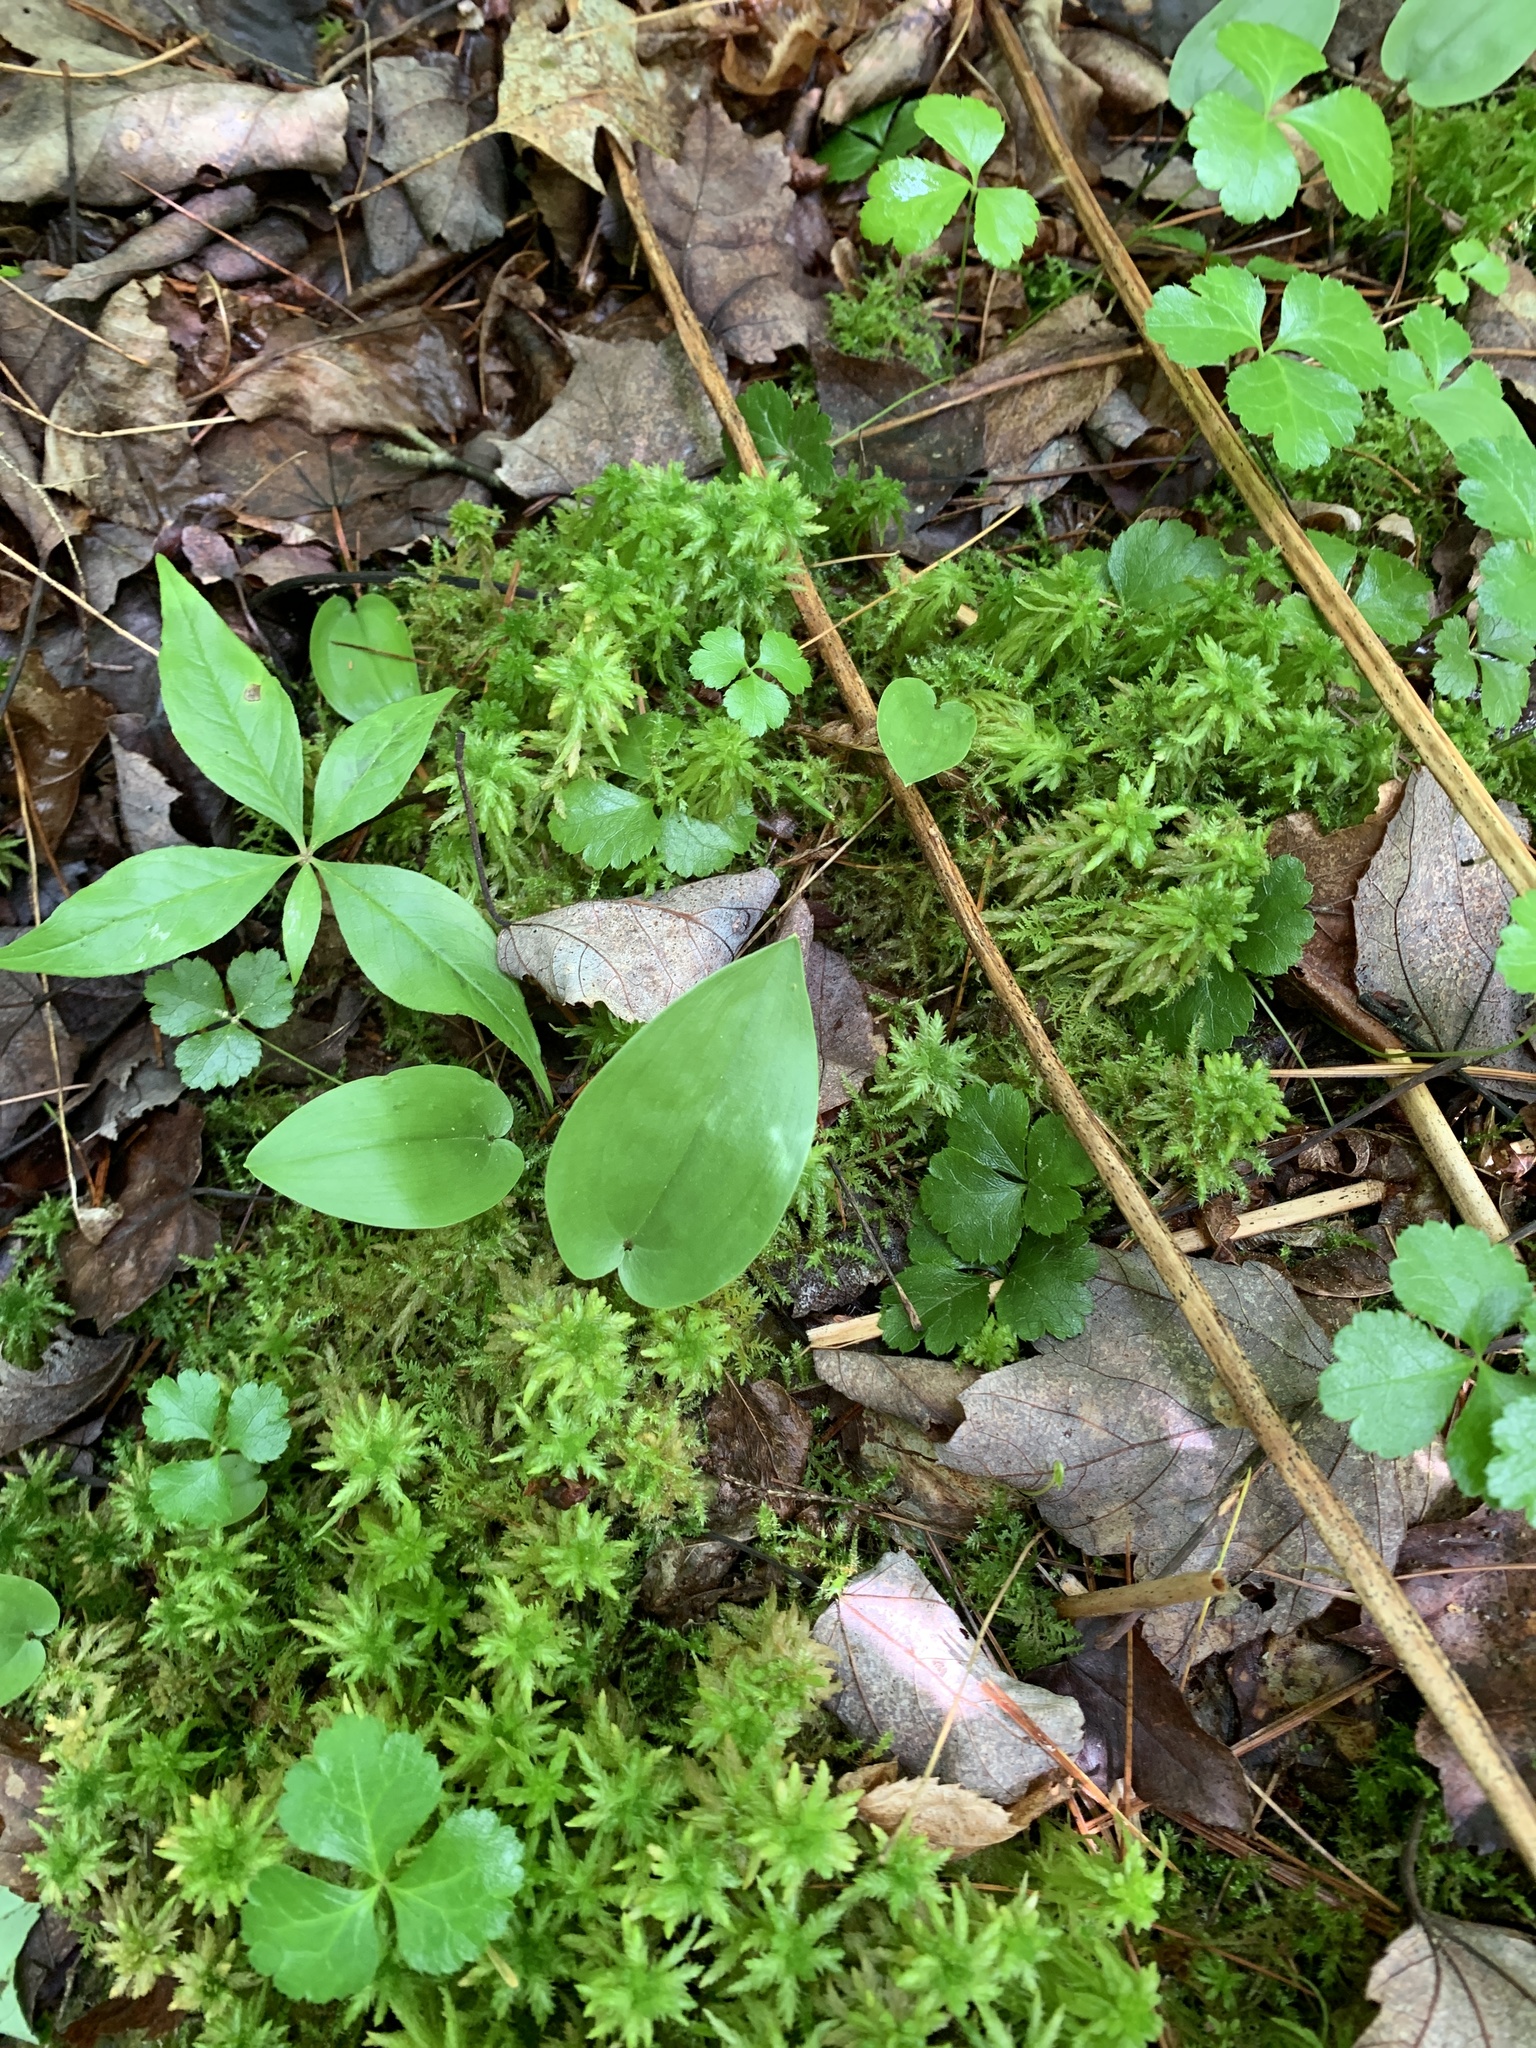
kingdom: Plantae
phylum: Tracheophyta
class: Liliopsida
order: Asparagales
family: Asparagaceae
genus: Maianthemum
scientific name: Maianthemum canadense
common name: False lily-of-the-valley
